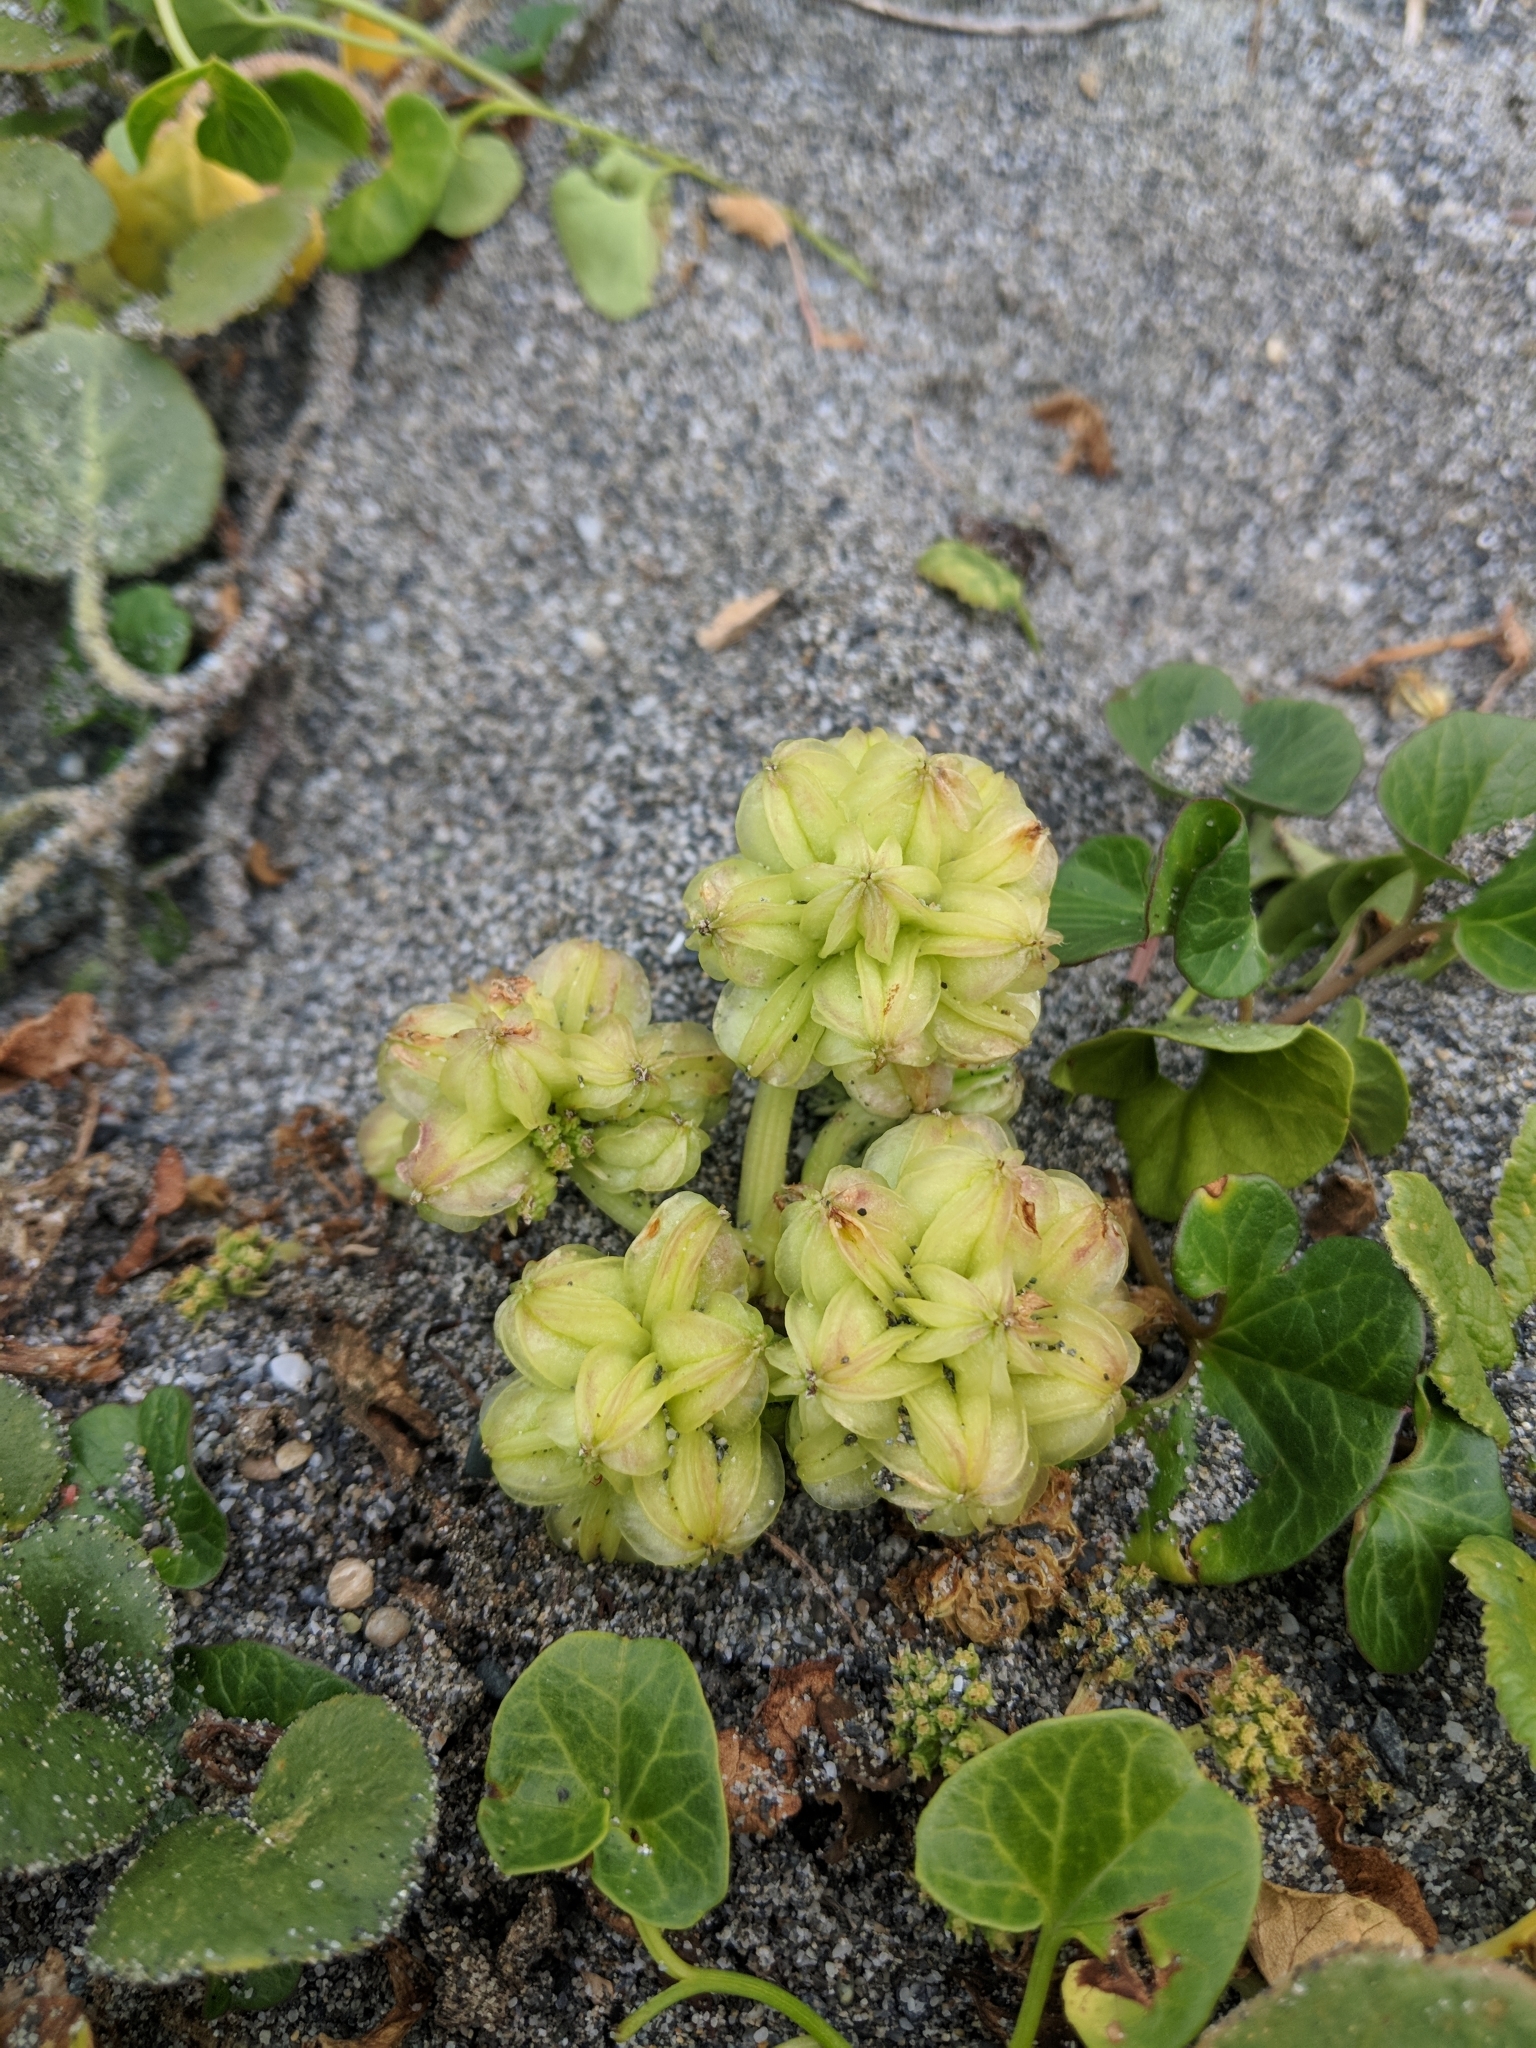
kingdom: Plantae
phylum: Tracheophyta
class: Magnoliopsida
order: Apiales
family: Apiaceae
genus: Glehnia
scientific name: Glehnia littoralis
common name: Beach silvertop
